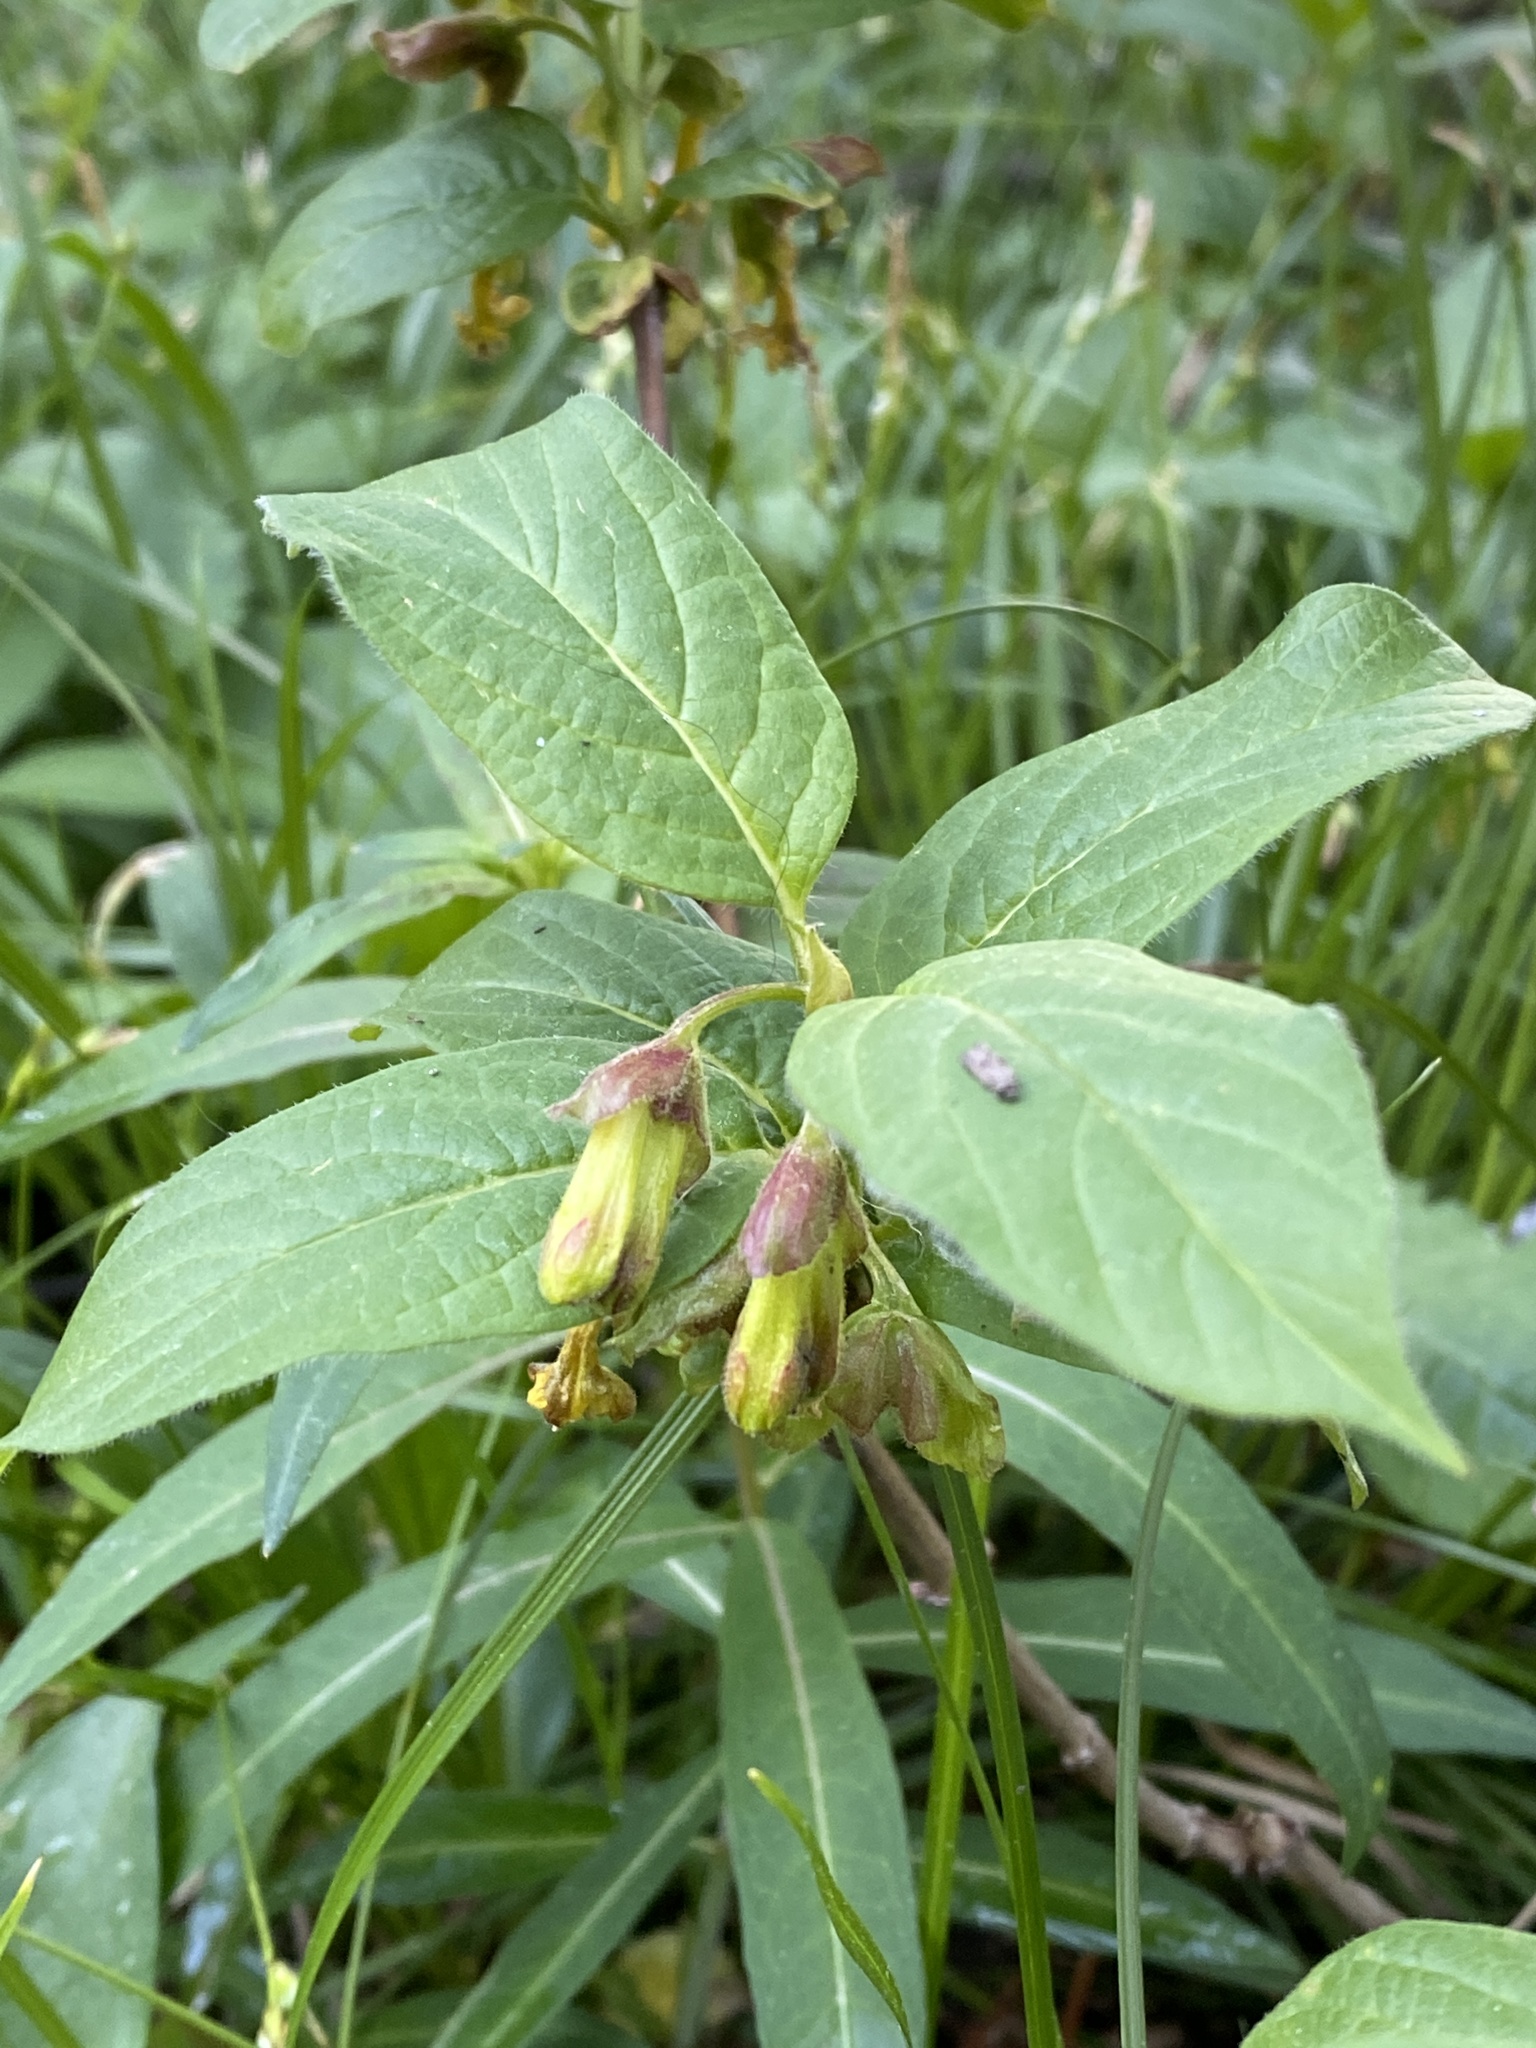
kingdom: Plantae
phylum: Tracheophyta
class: Magnoliopsida
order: Dipsacales
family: Caprifoliaceae
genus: Lonicera
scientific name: Lonicera involucrata
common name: Californian honeysuckle
